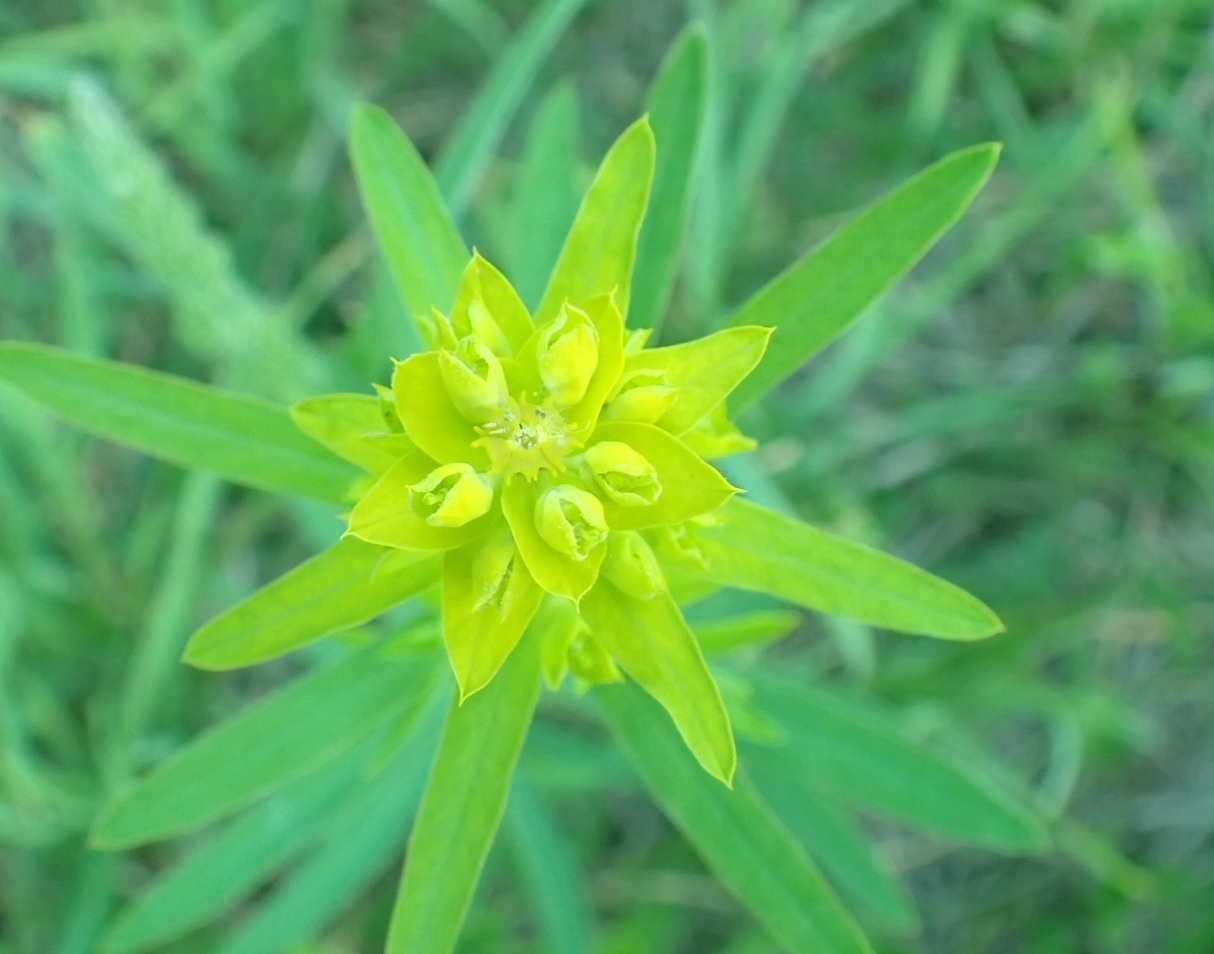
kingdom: Plantae
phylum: Tracheophyta
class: Magnoliopsida
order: Malpighiales
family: Euphorbiaceae
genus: Euphorbia
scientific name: Euphorbia virgata
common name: Leafy spurge
